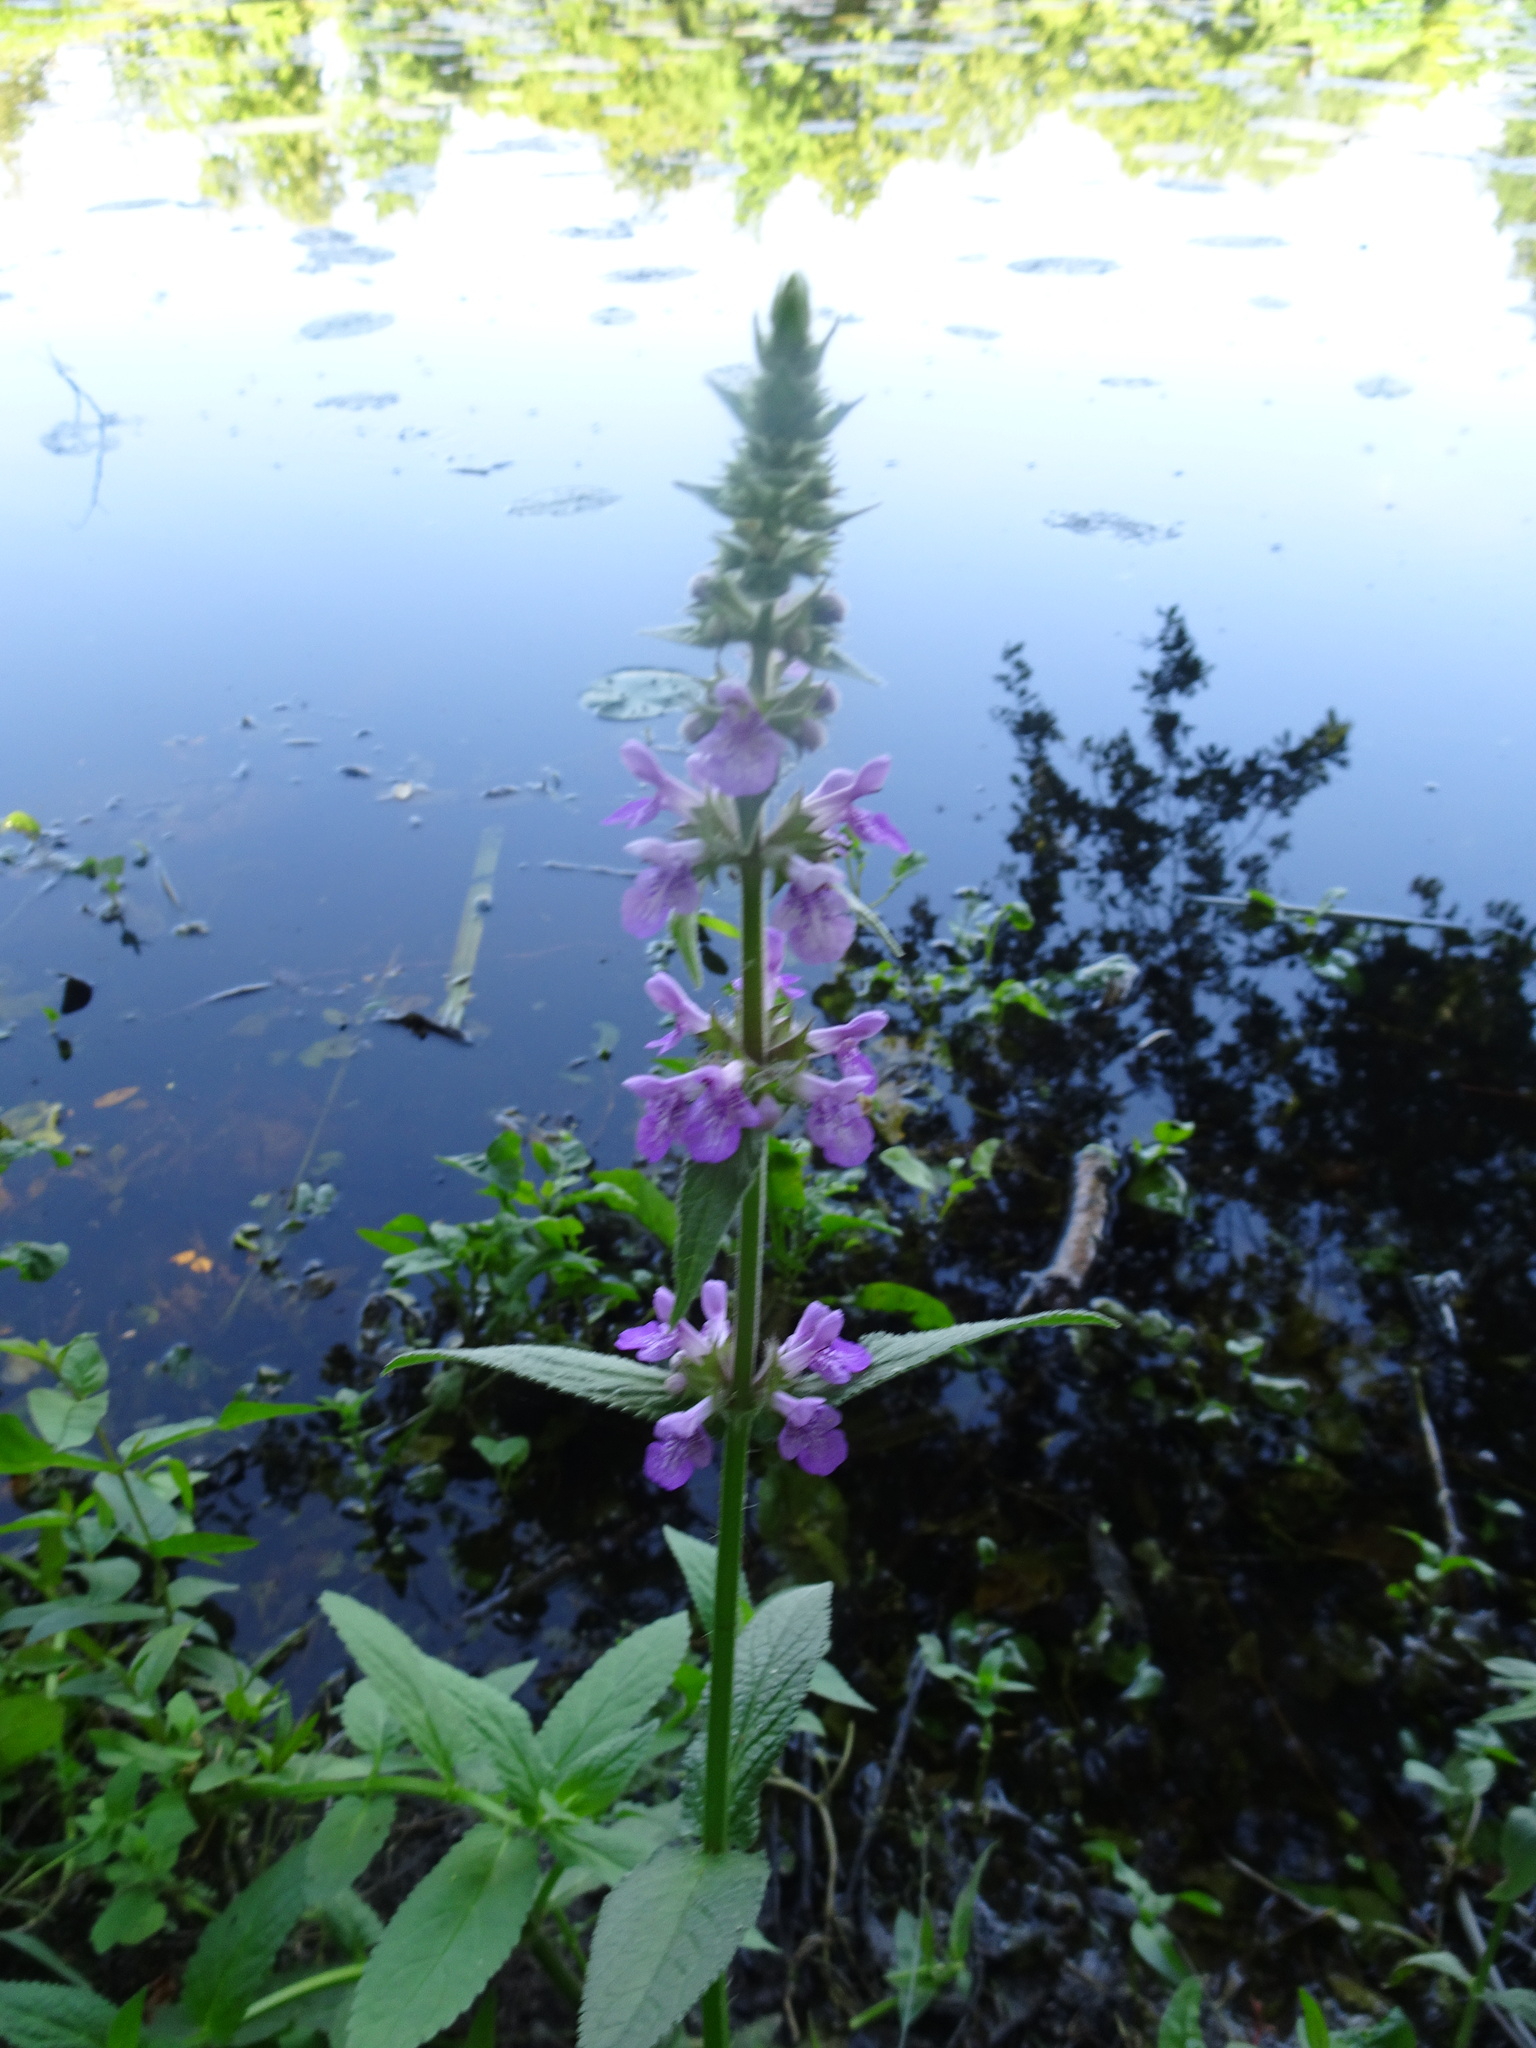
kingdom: Plantae
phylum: Tracheophyta
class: Magnoliopsida
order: Lamiales
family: Lamiaceae
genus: Stachys
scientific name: Stachys palustris
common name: Marsh woundwort
